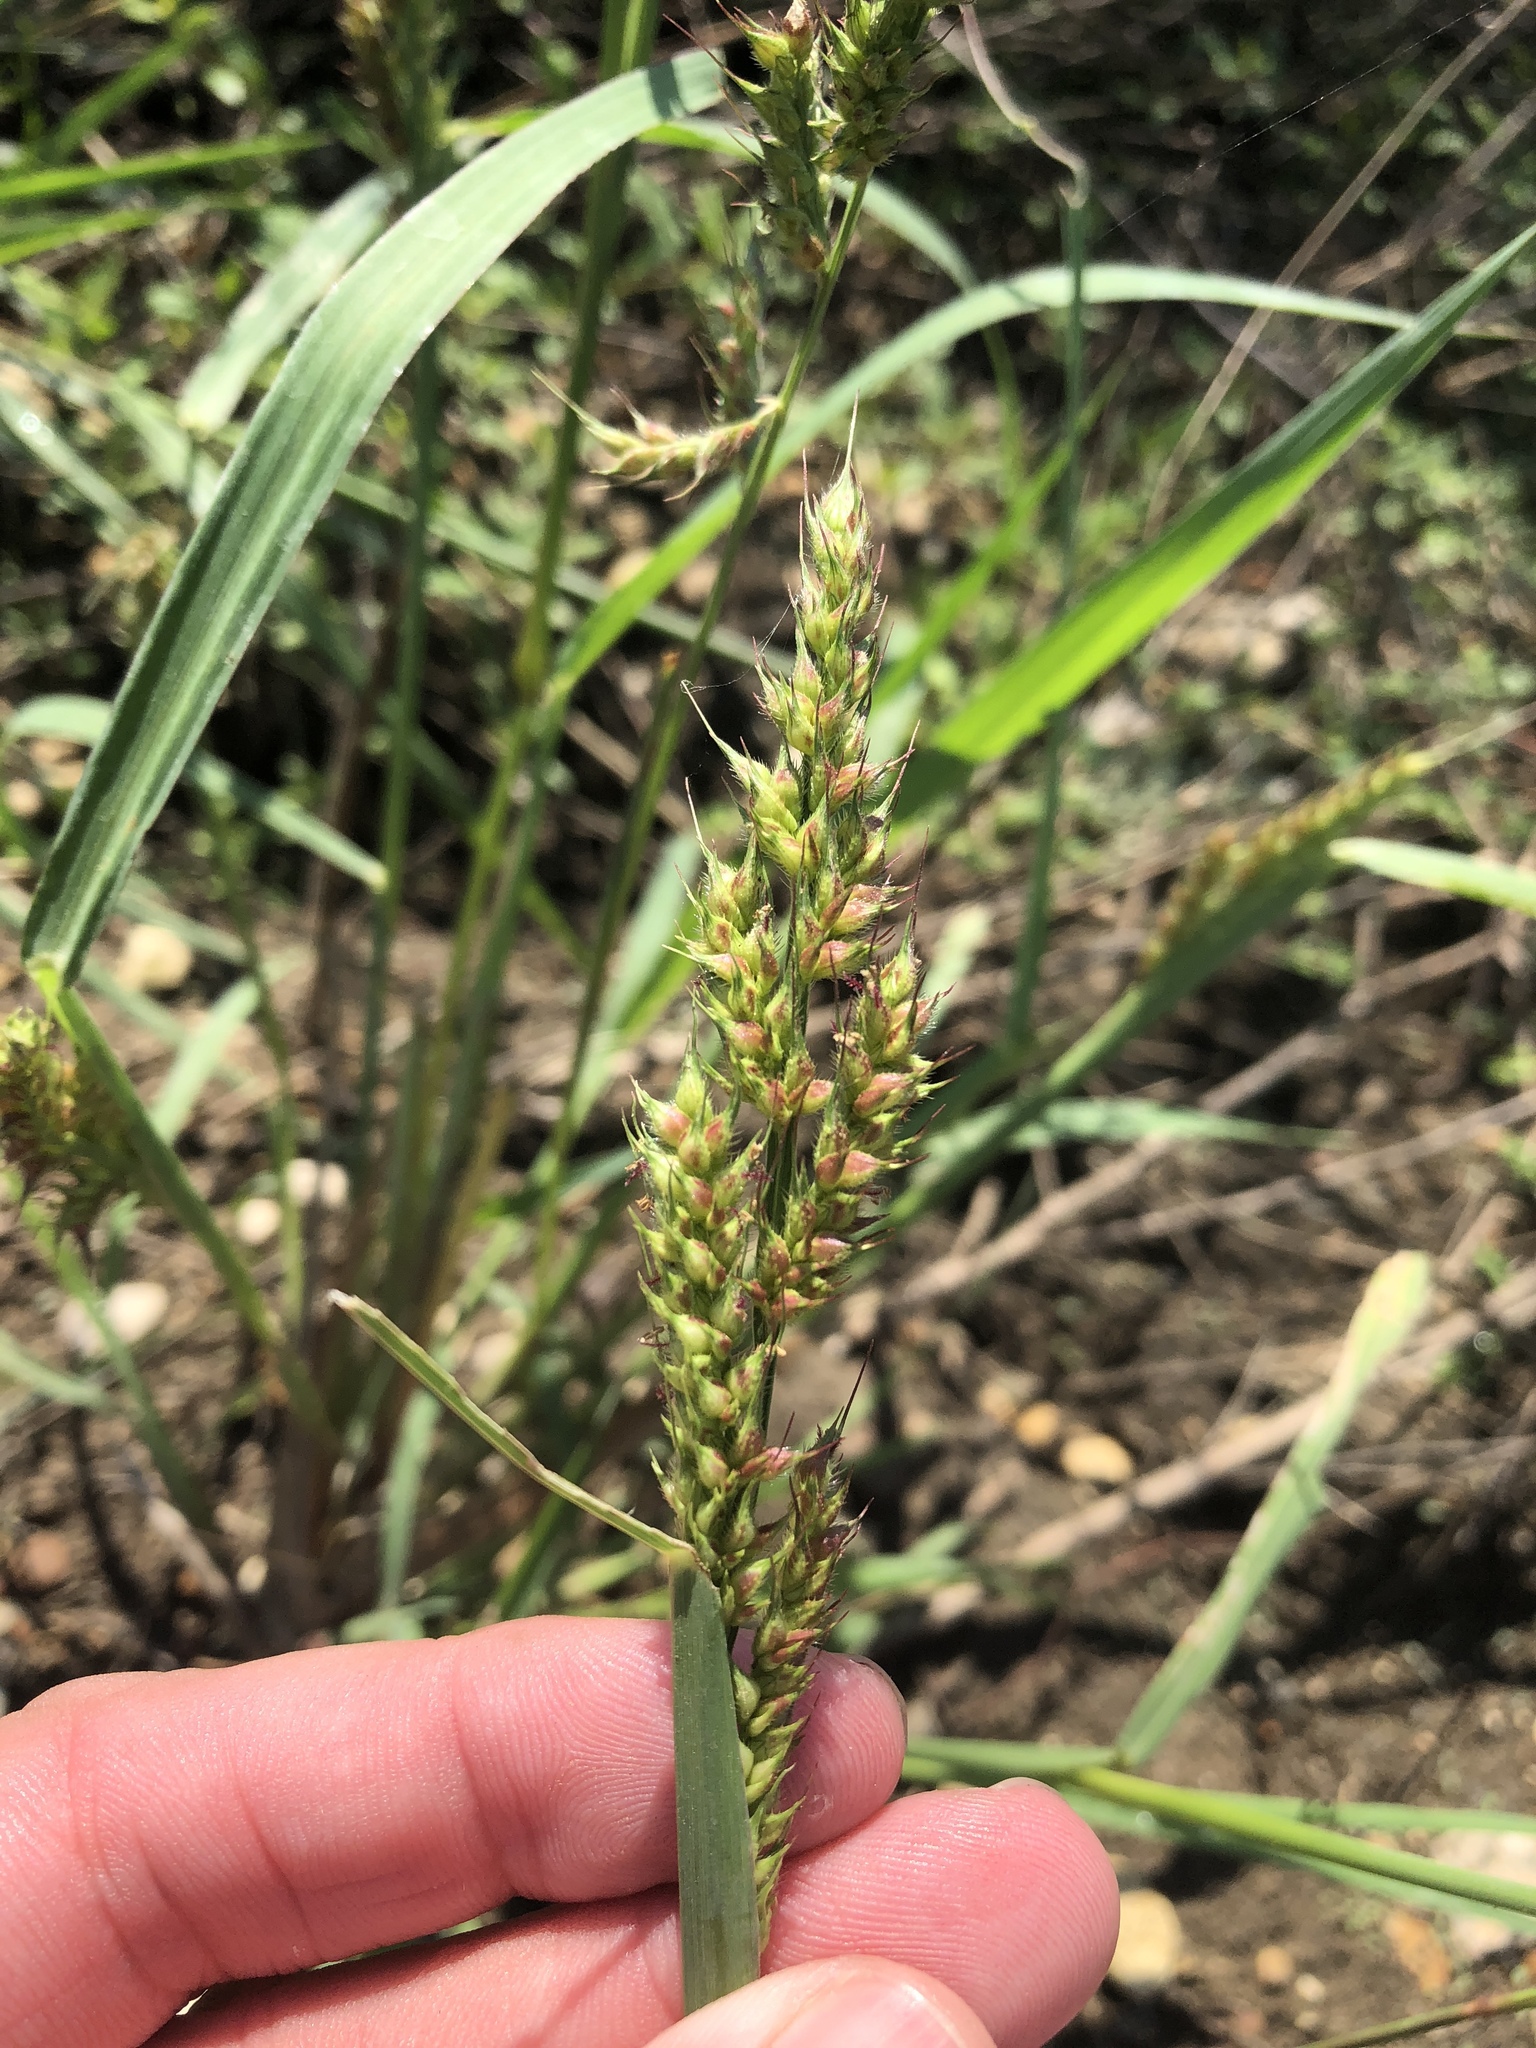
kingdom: Plantae
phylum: Tracheophyta
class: Liliopsida
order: Poales
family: Poaceae
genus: Echinochloa
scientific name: Echinochloa crus-galli
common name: Cockspur
